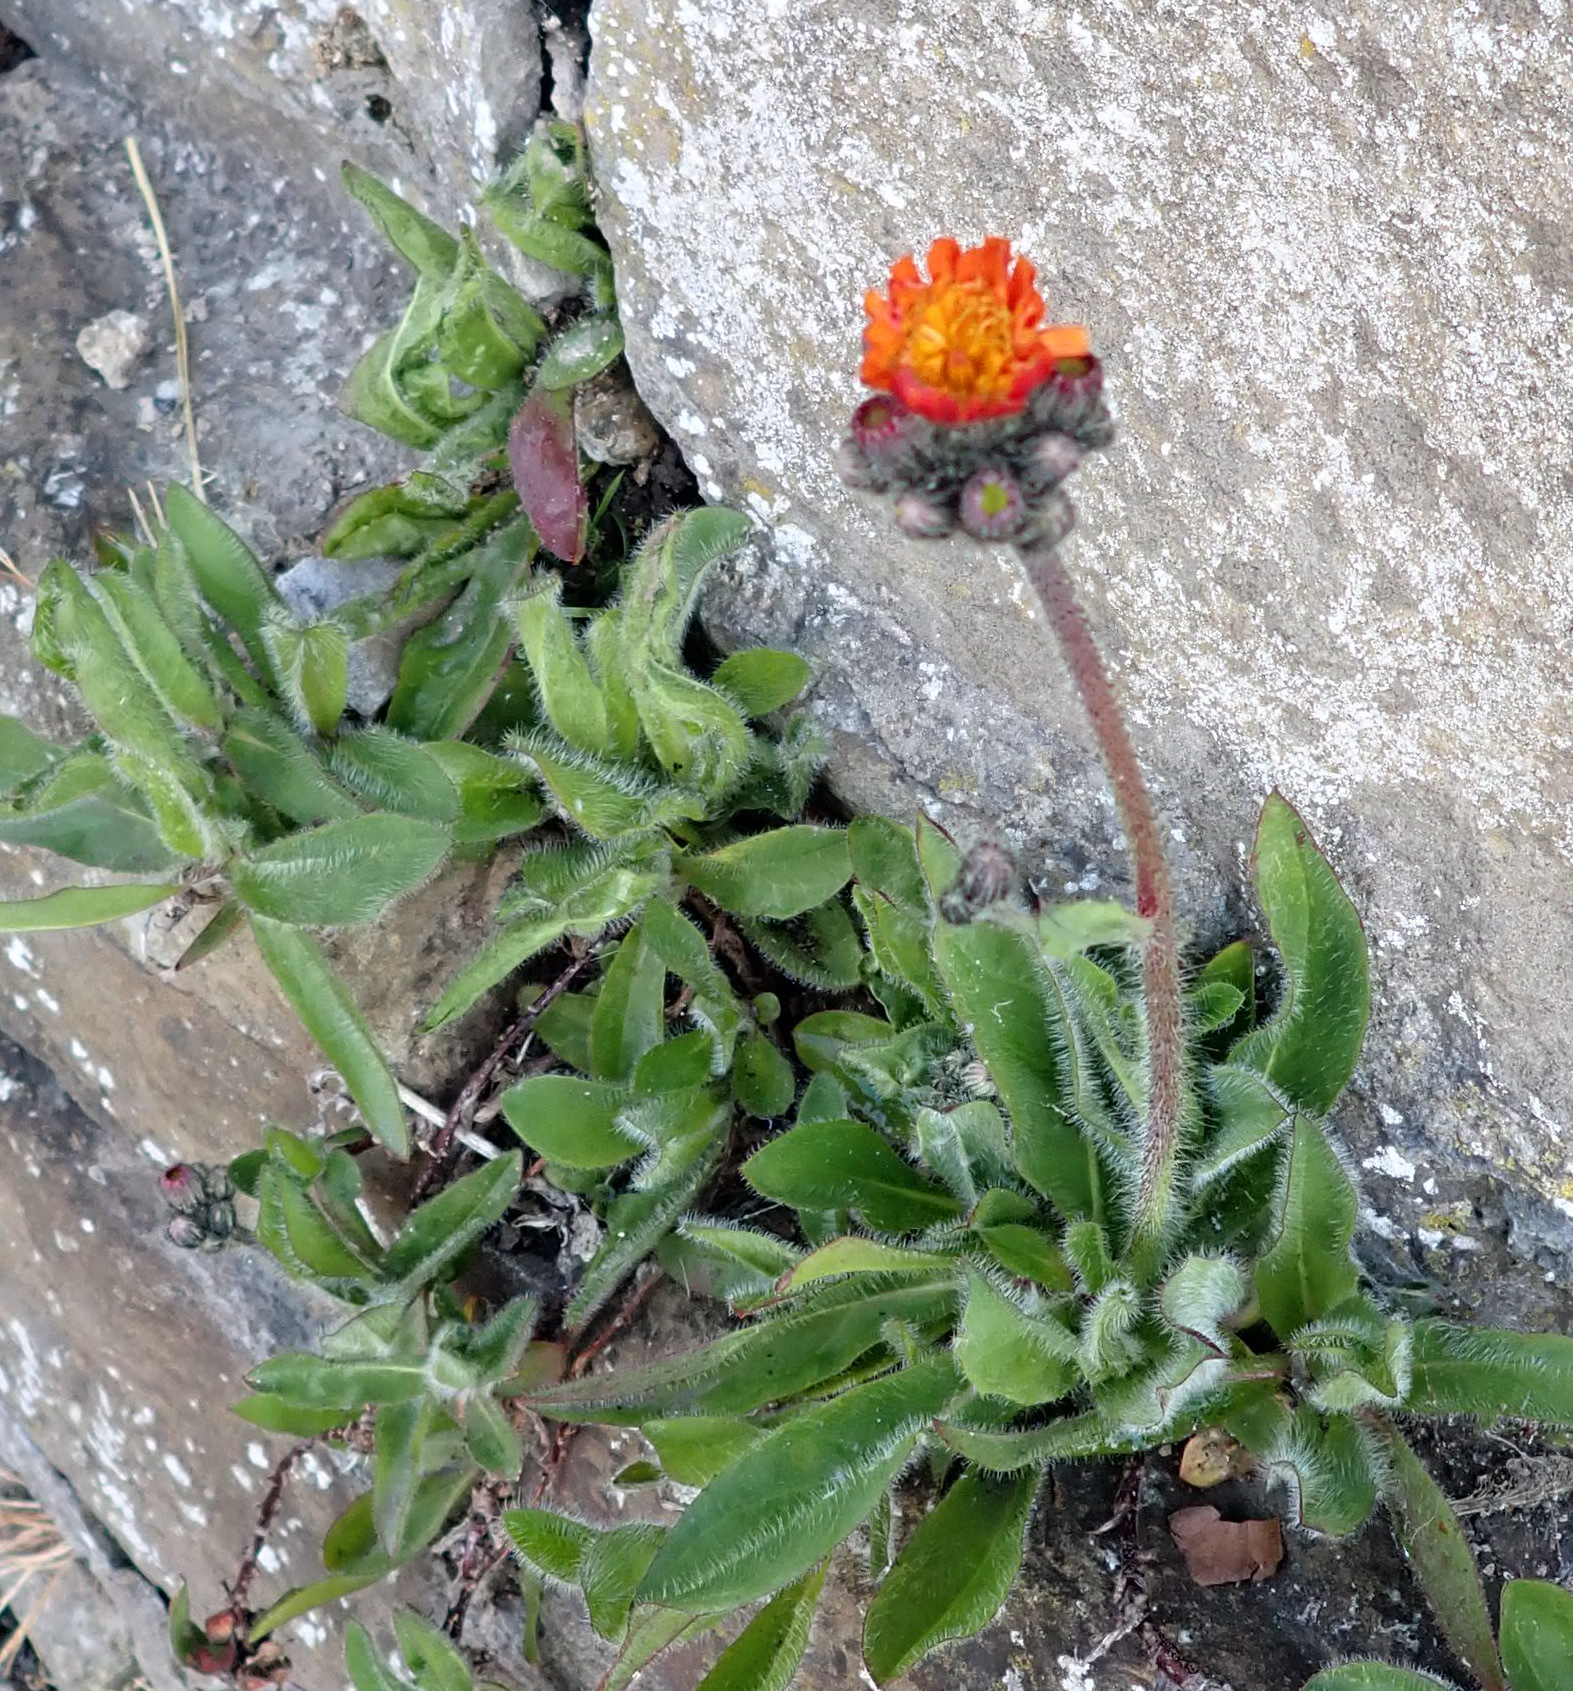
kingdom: Plantae
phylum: Tracheophyta
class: Magnoliopsida
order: Asterales
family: Asteraceae
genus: Pilosella
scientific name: Pilosella aurantiaca
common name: Fox-and-cubs
